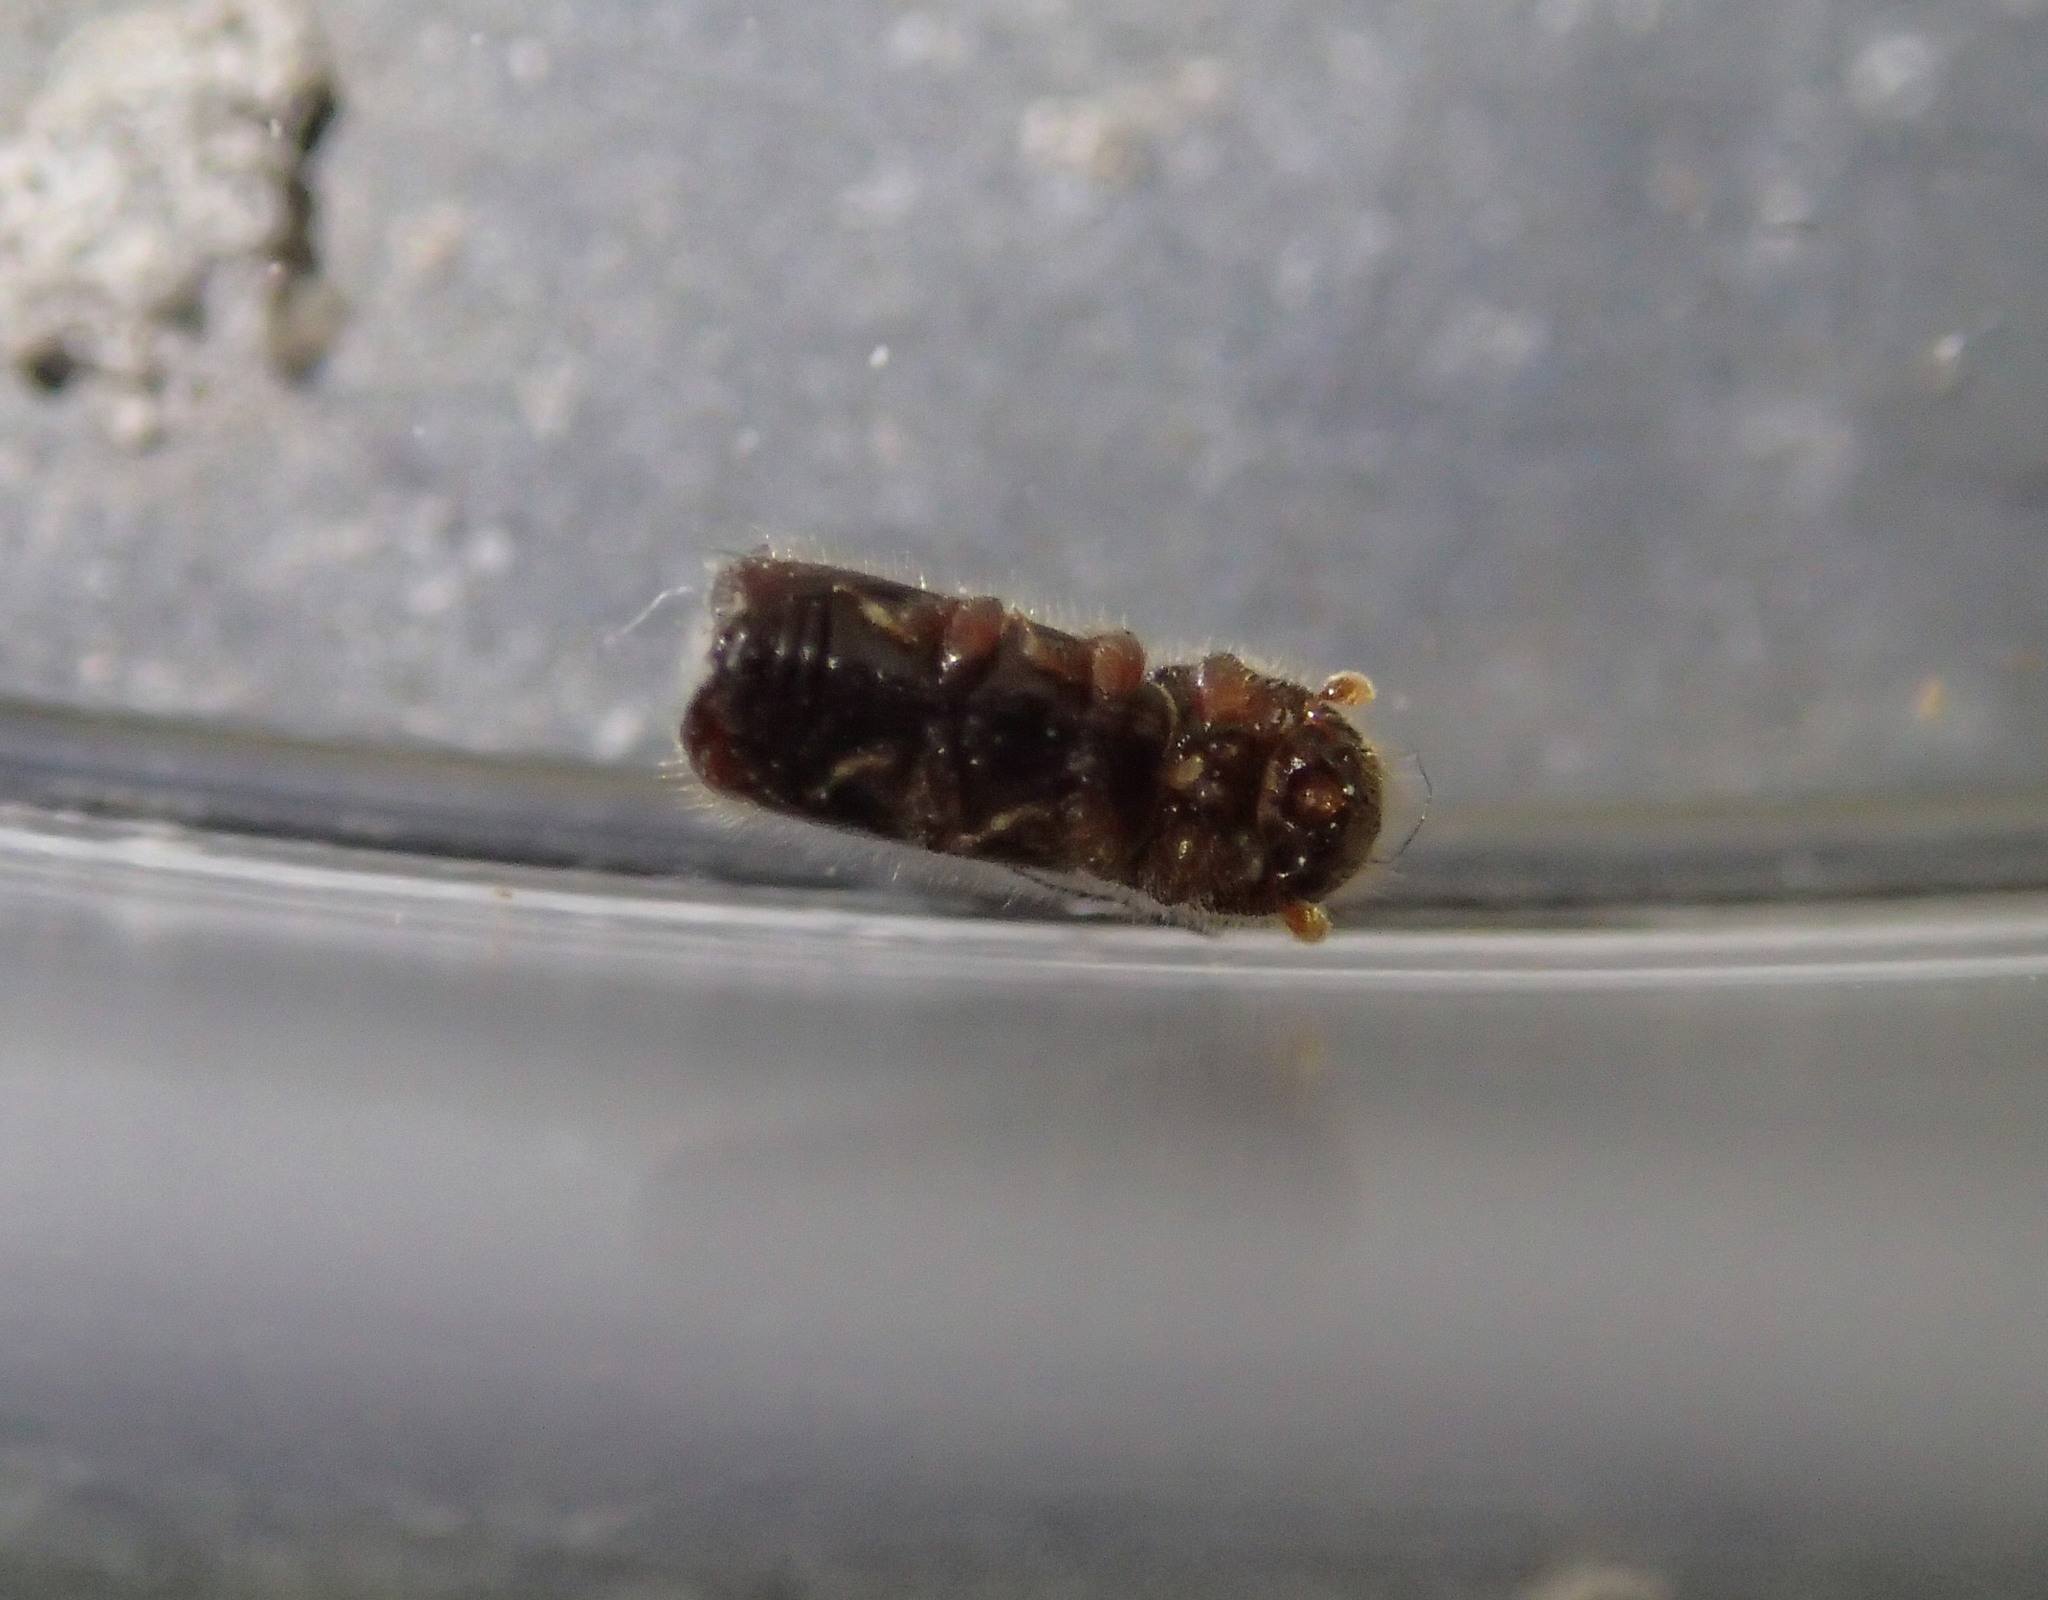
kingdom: Animalia
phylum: Arthropoda
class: Insecta
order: Coleoptera
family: Curculionidae
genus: Xylocleptes
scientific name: Xylocleptes bispinus
